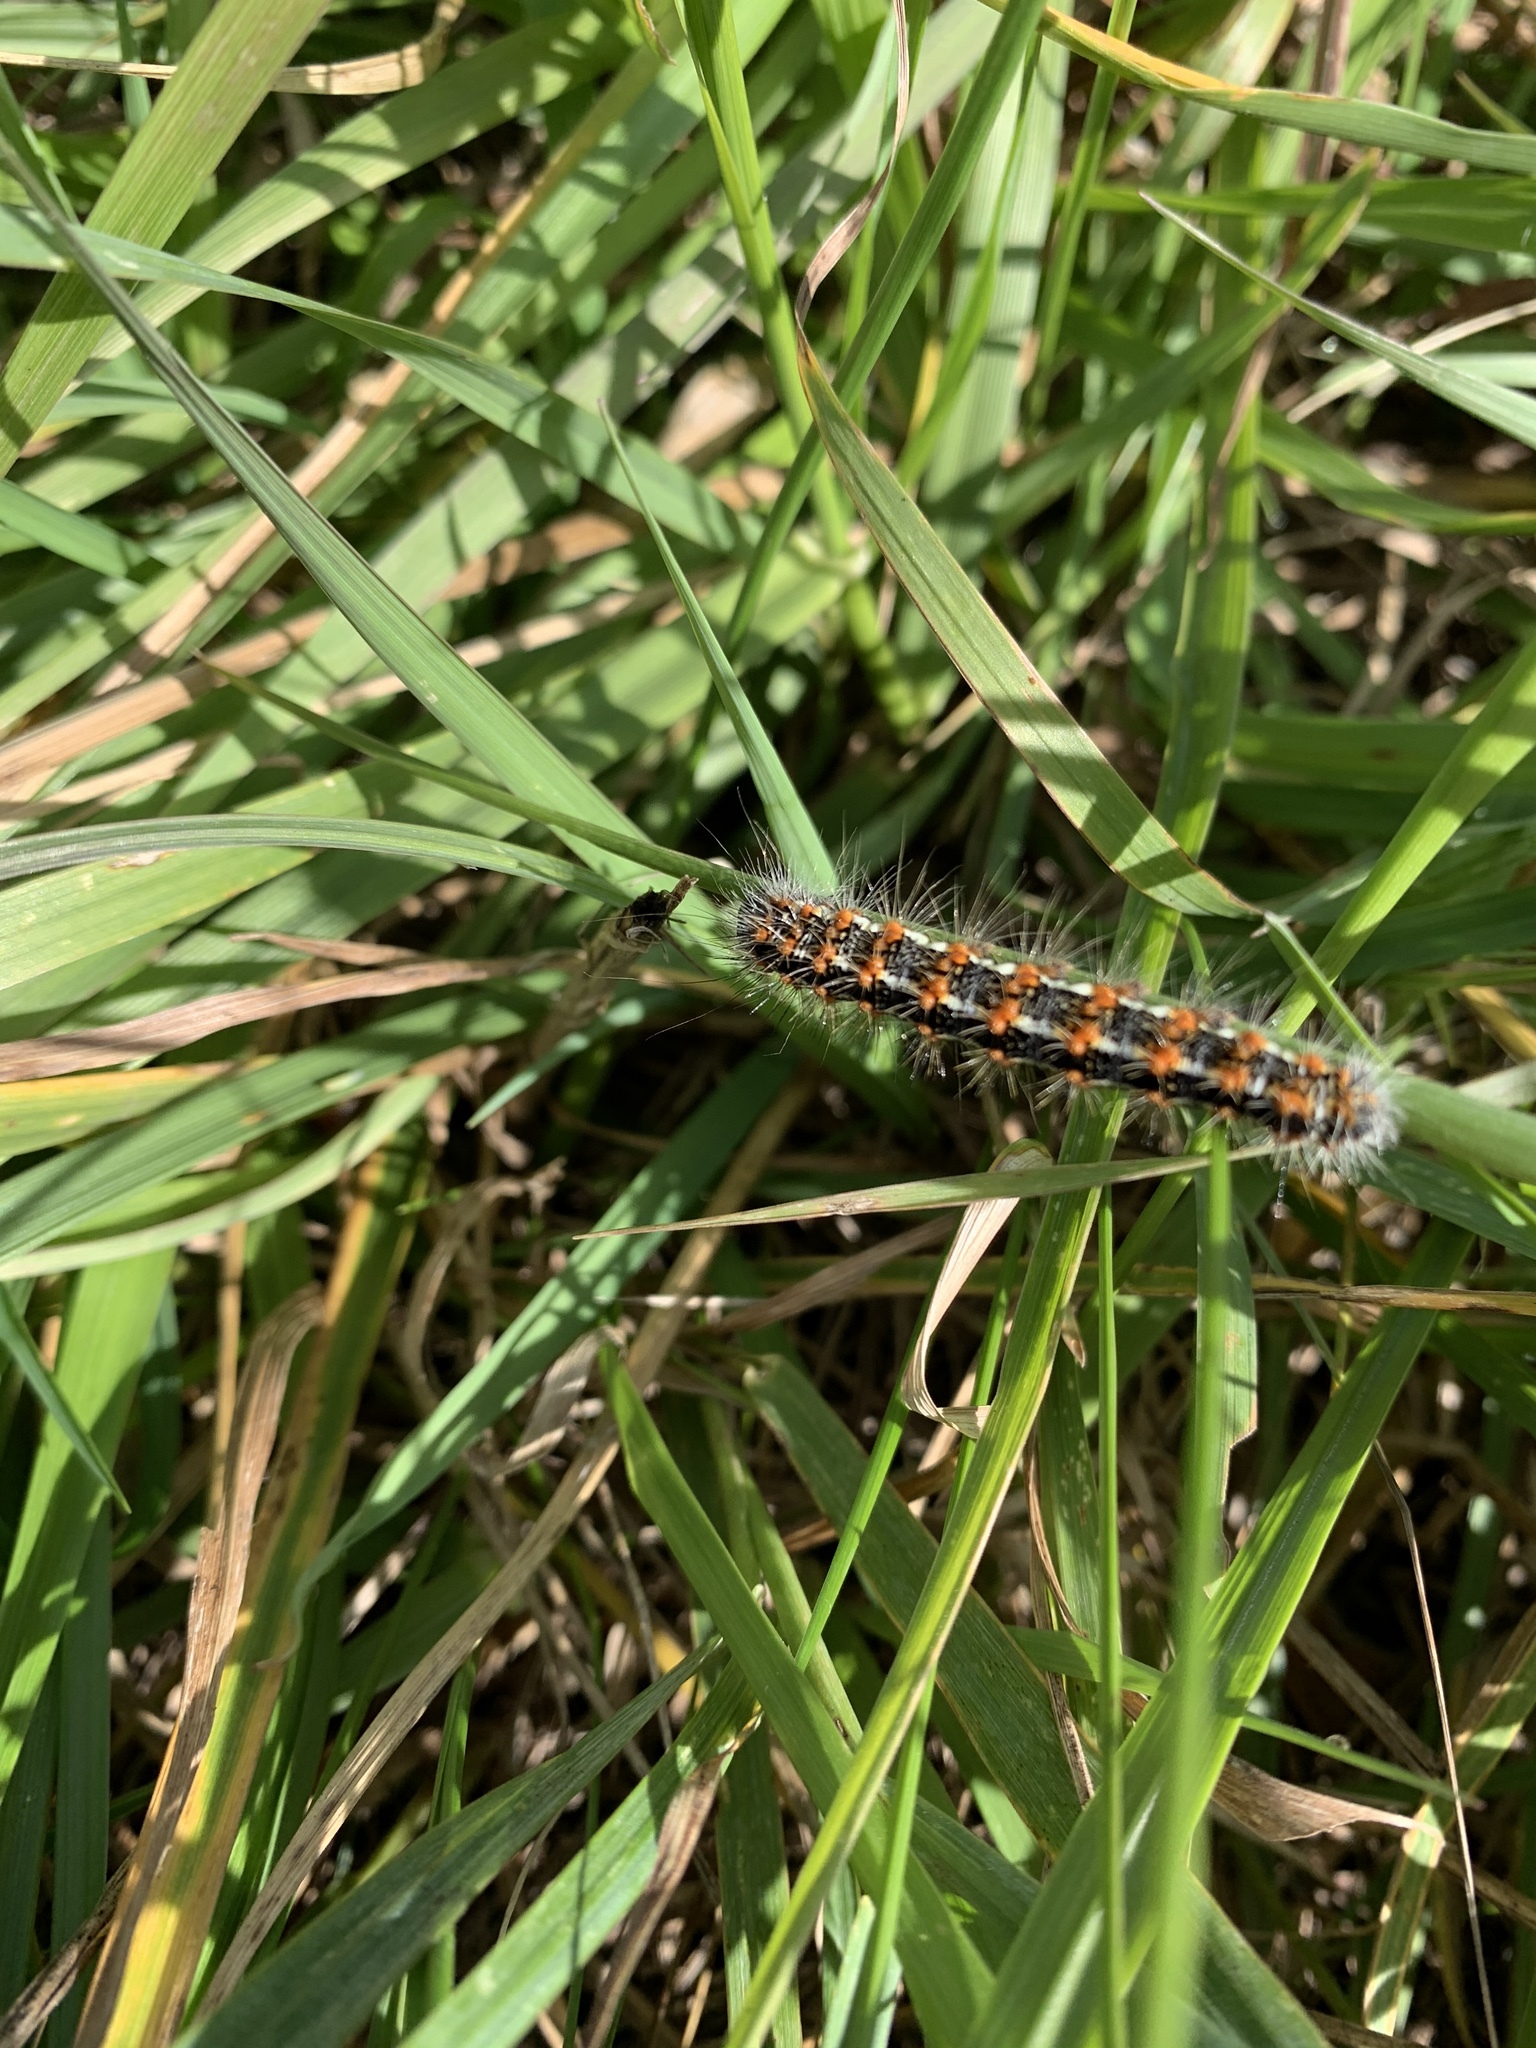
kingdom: Animalia
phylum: Arthropoda
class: Insecta
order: Lepidoptera
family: Noctuidae
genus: Acronicta
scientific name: Acronicta insularis
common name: Henry's marsh moth
